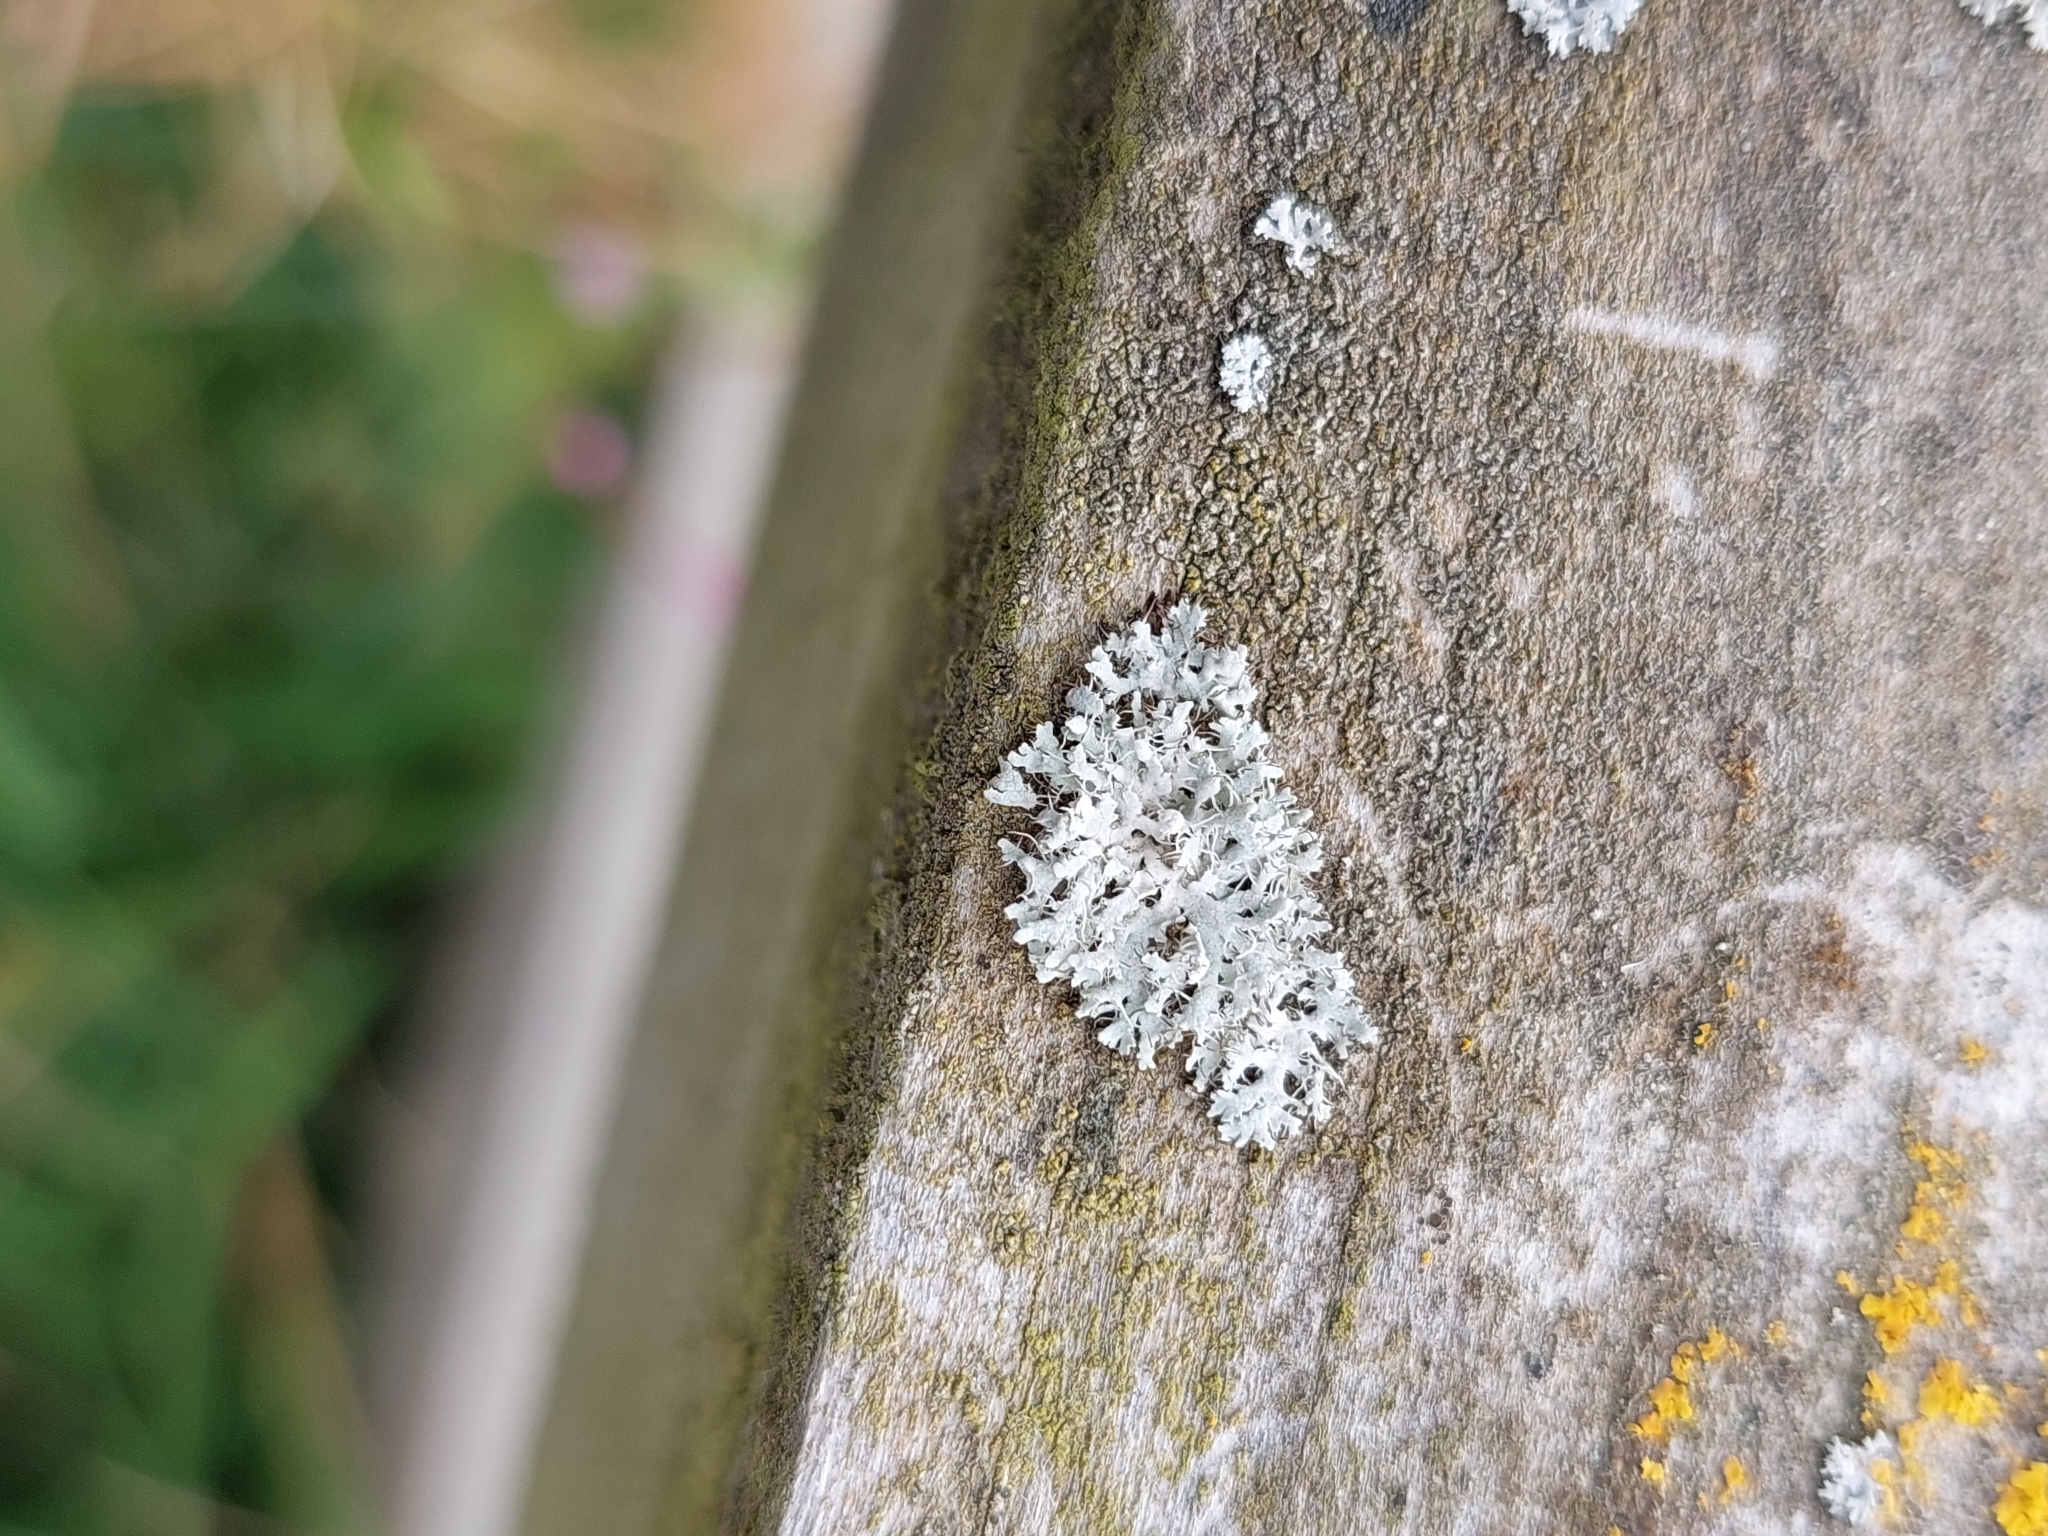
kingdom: Fungi
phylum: Ascomycota
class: Lecanoromycetes
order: Caliciales
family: Physciaceae
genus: Physcia
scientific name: Physcia adscendens
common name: Hooded rosette lichen
